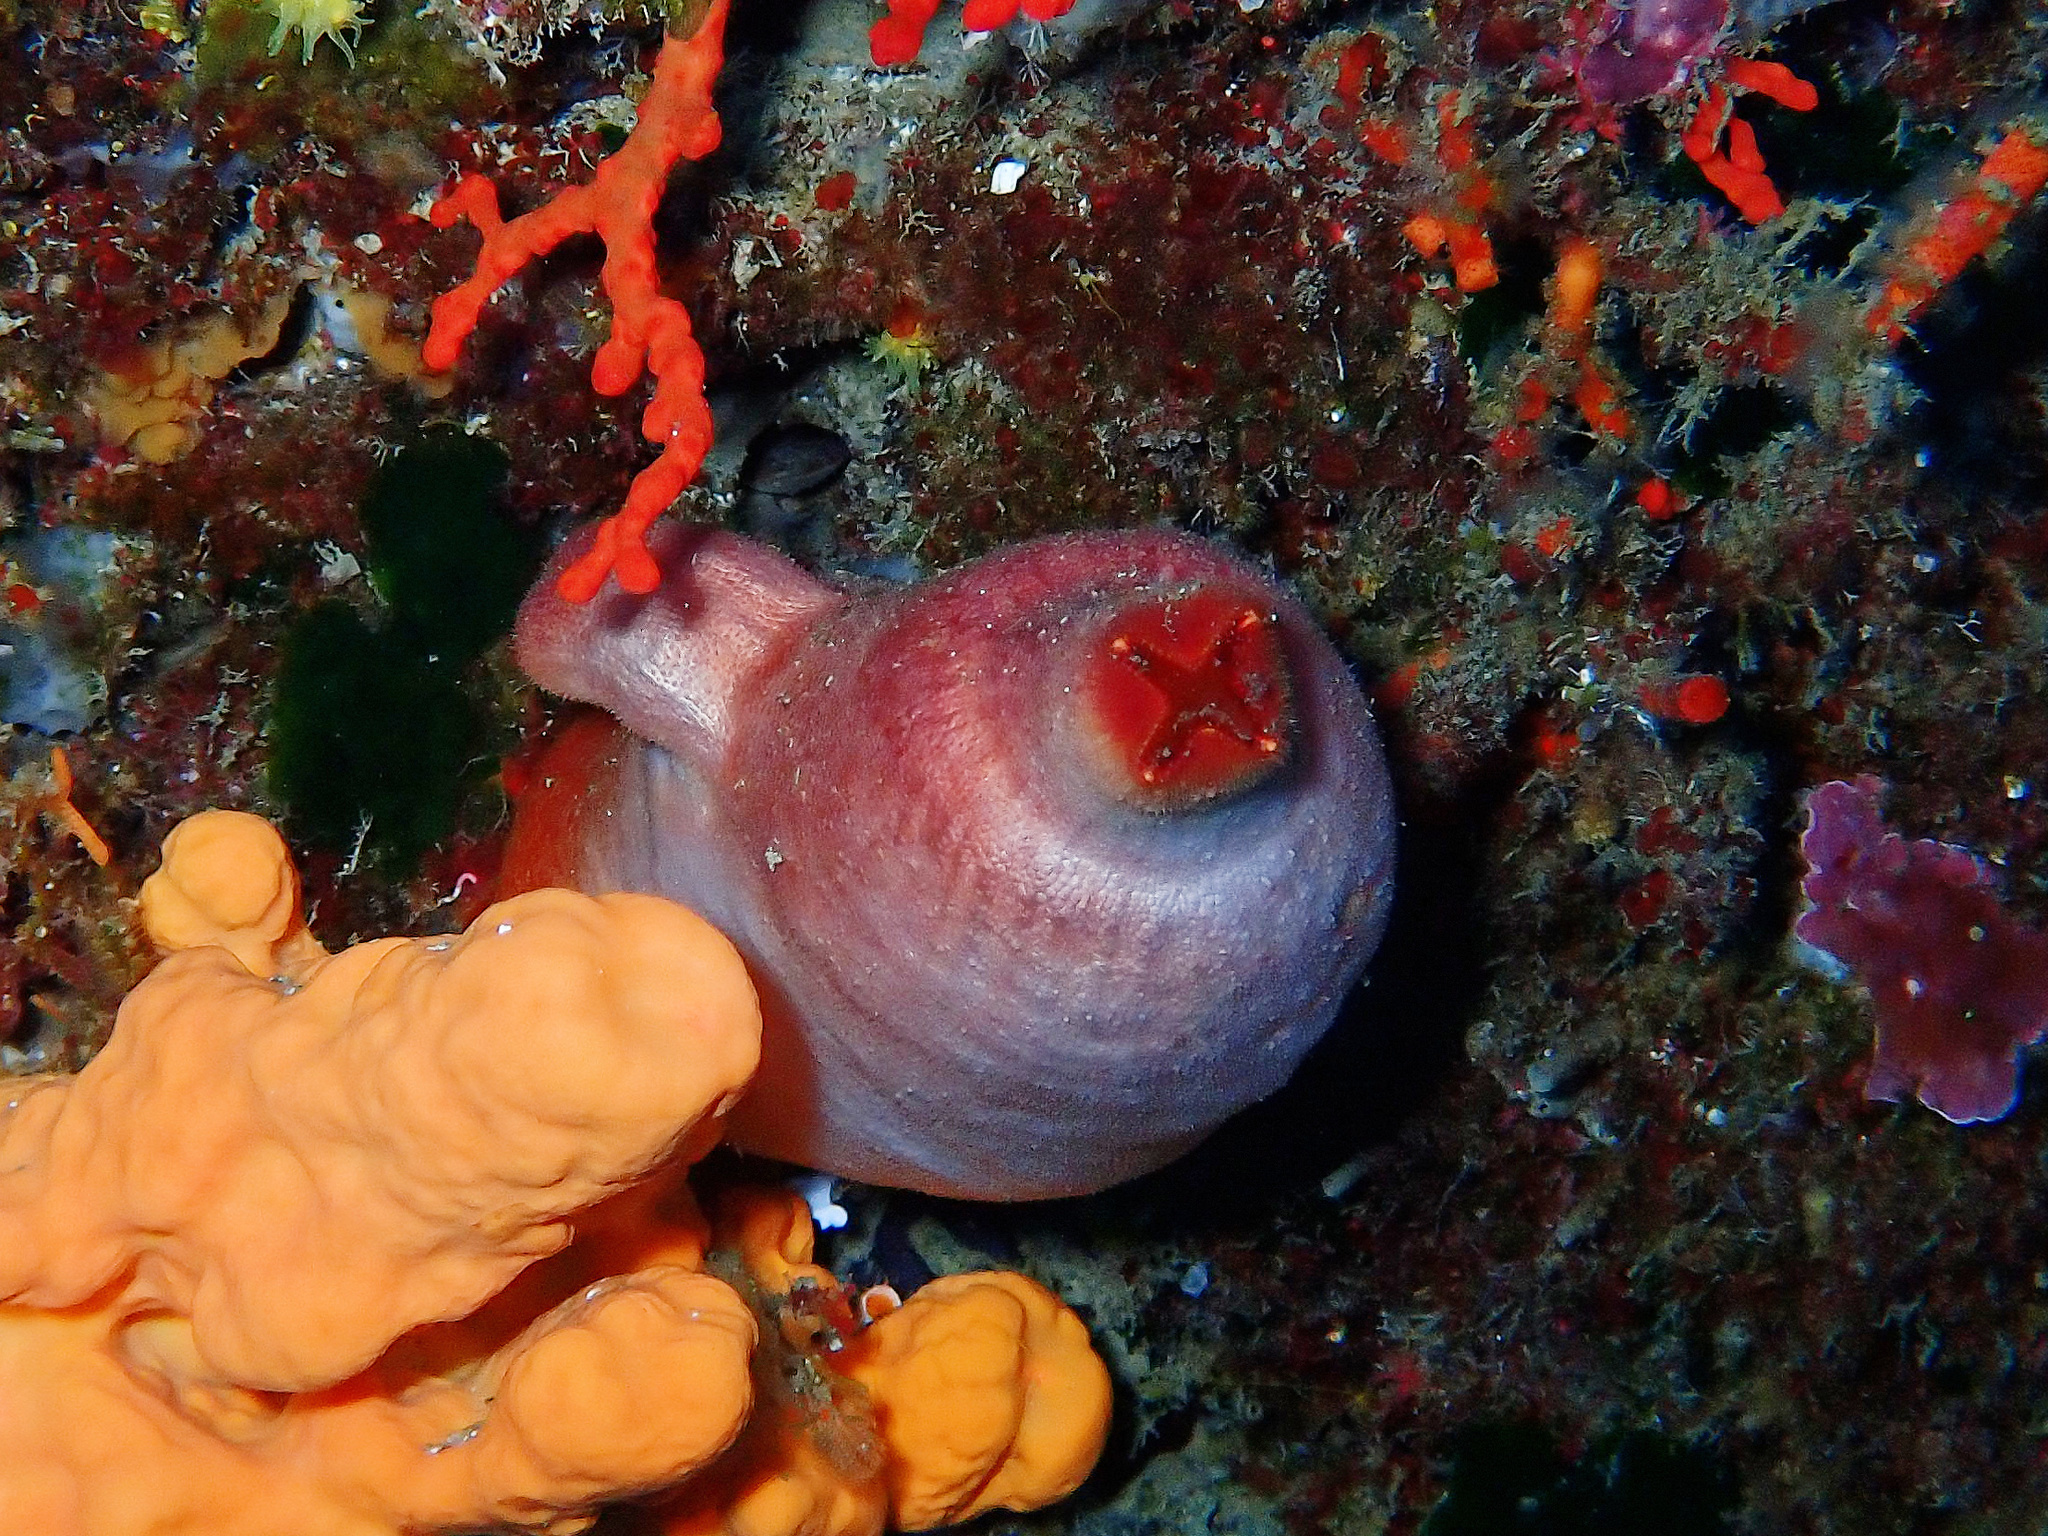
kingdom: Animalia
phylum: Chordata
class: Ascidiacea
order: Stolidobranchia
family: Pyuridae
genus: Halocynthia
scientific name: Halocynthia papillosa
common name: Red sea-squirt
